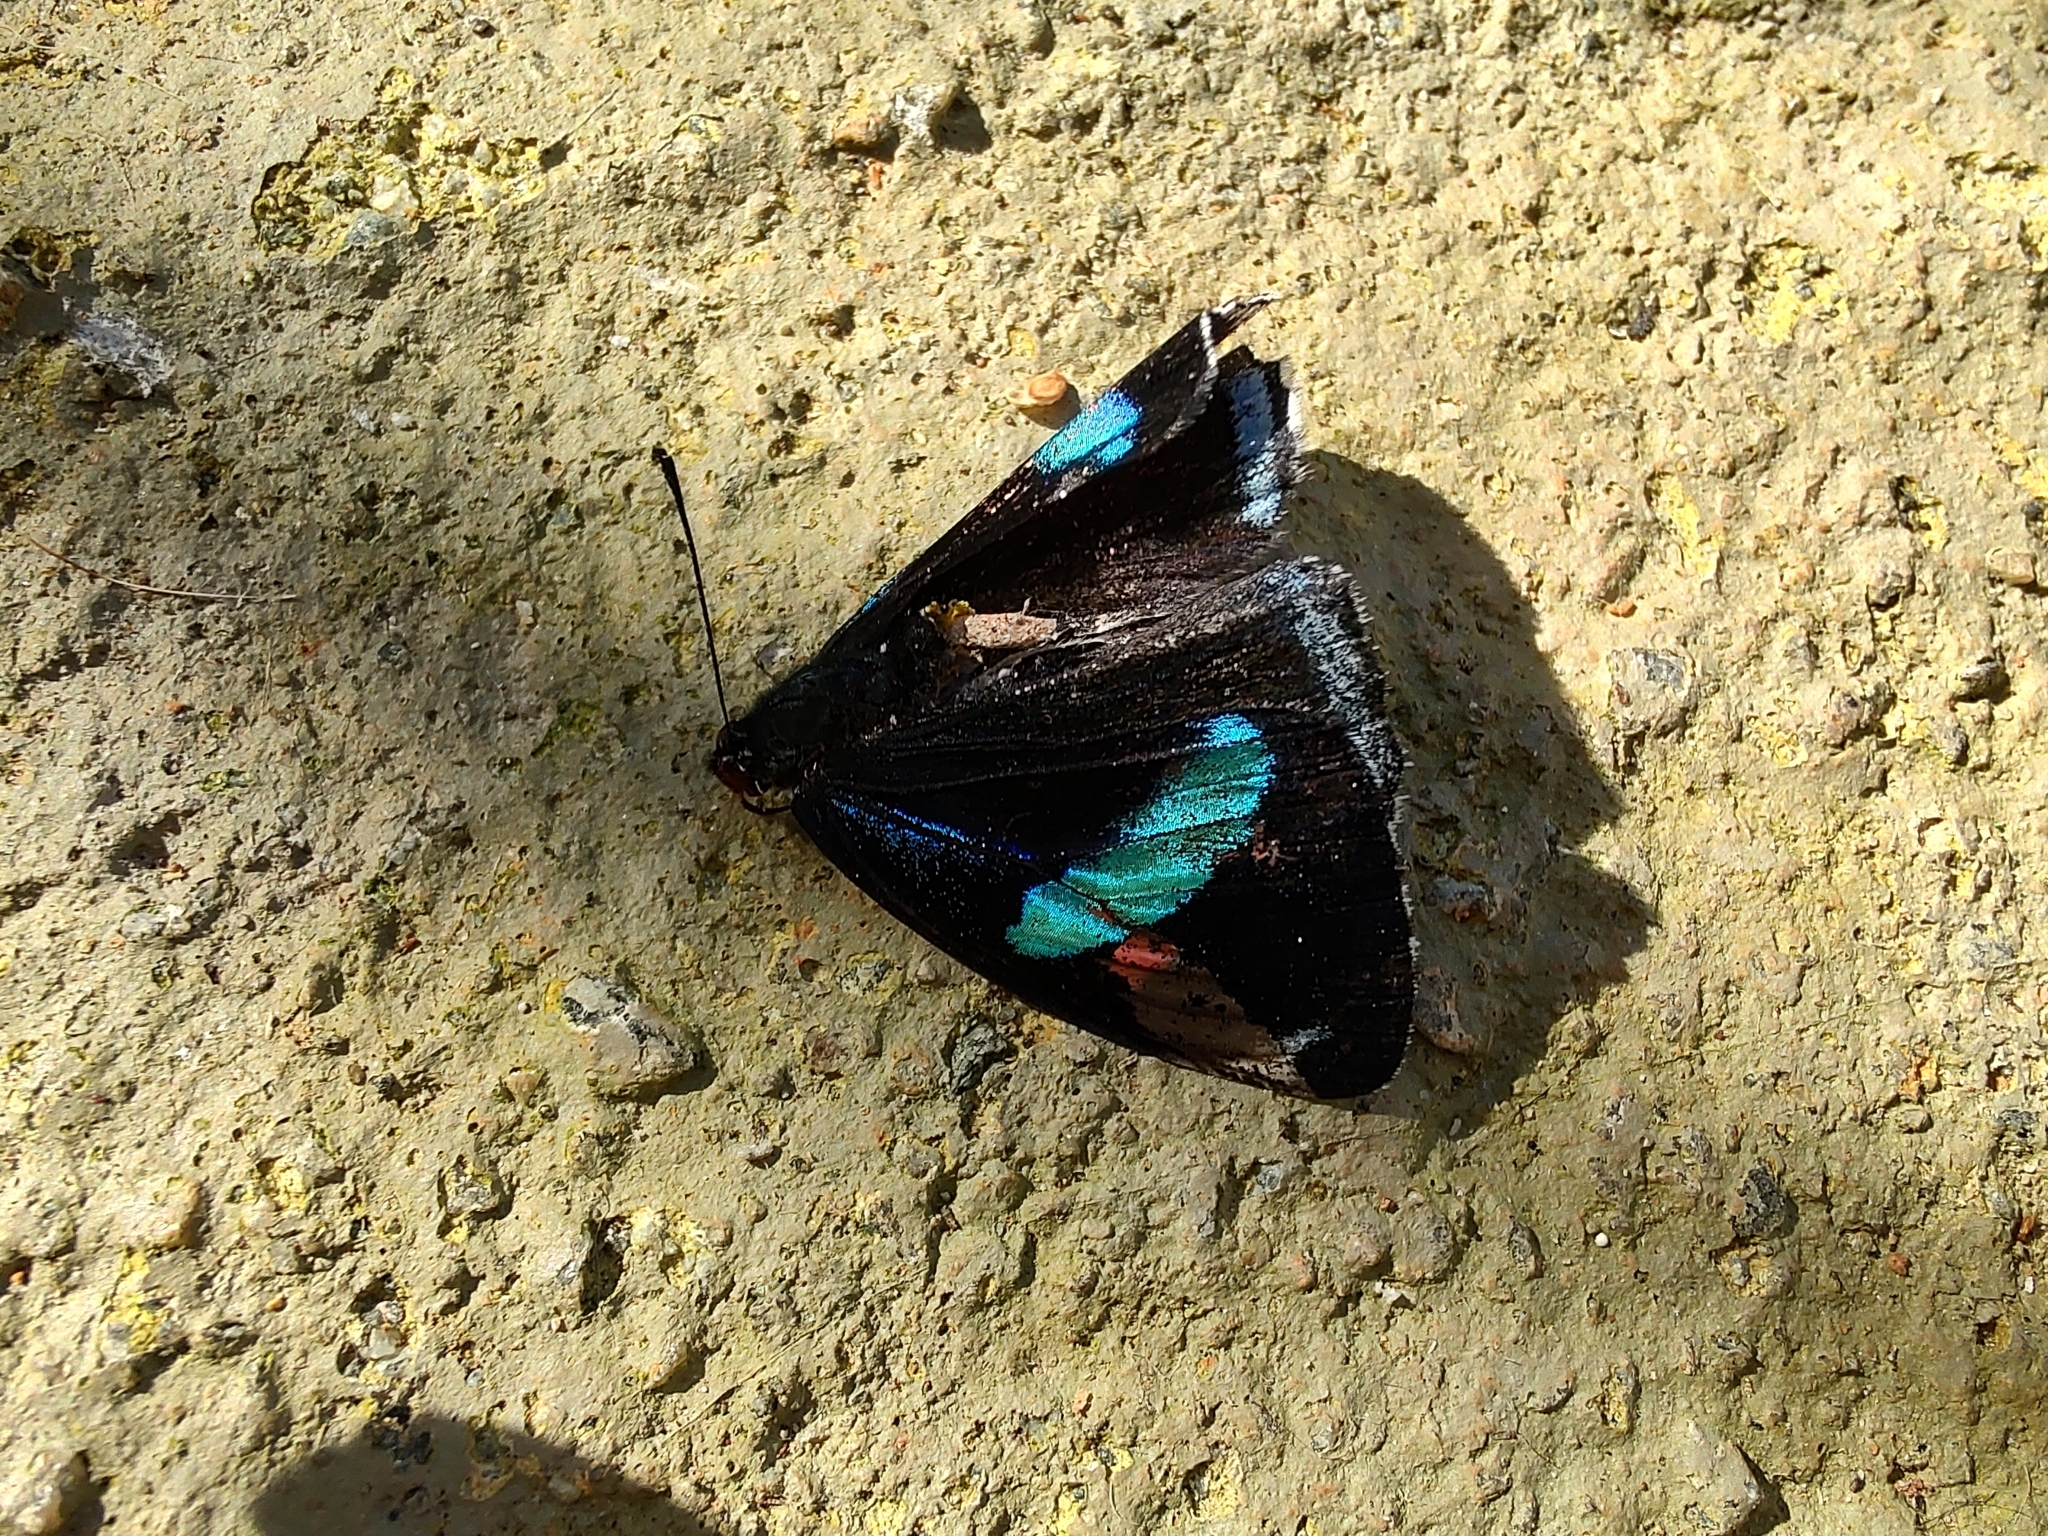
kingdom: Animalia
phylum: Arthropoda
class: Insecta
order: Lepidoptera
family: Nymphalidae
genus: Diaethria
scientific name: Diaethria clymena
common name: Widespread eighty-eight
